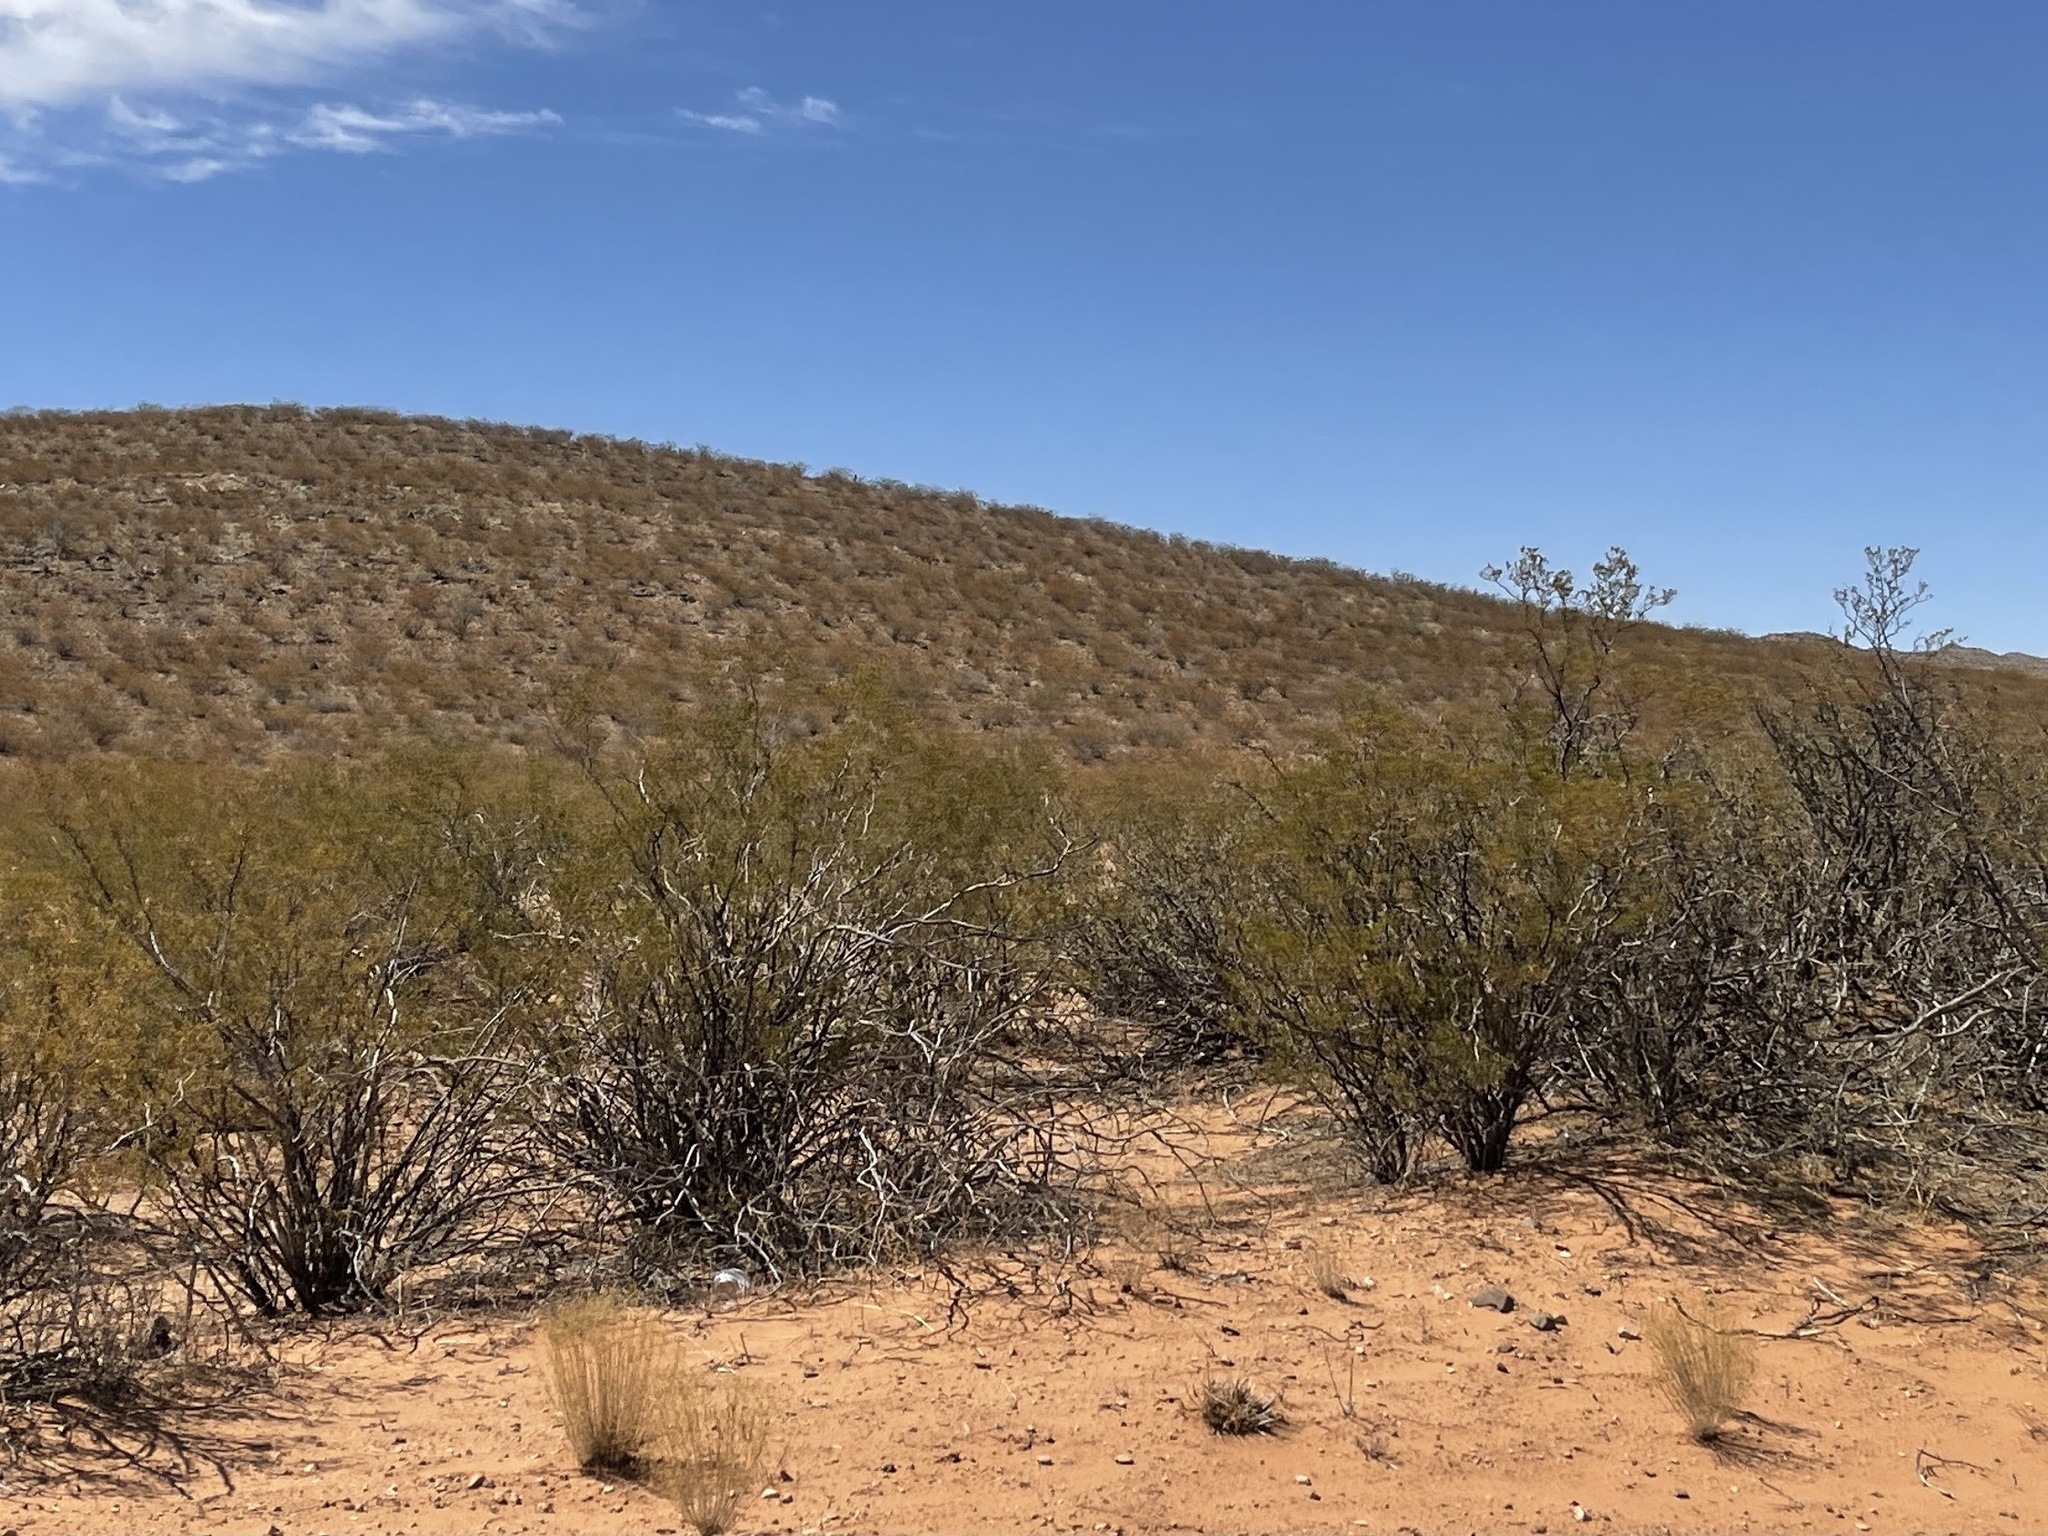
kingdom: Plantae
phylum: Tracheophyta
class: Magnoliopsida
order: Zygophyllales
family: Zygophyllaceae
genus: Larrea
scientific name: Larrea tridentata
